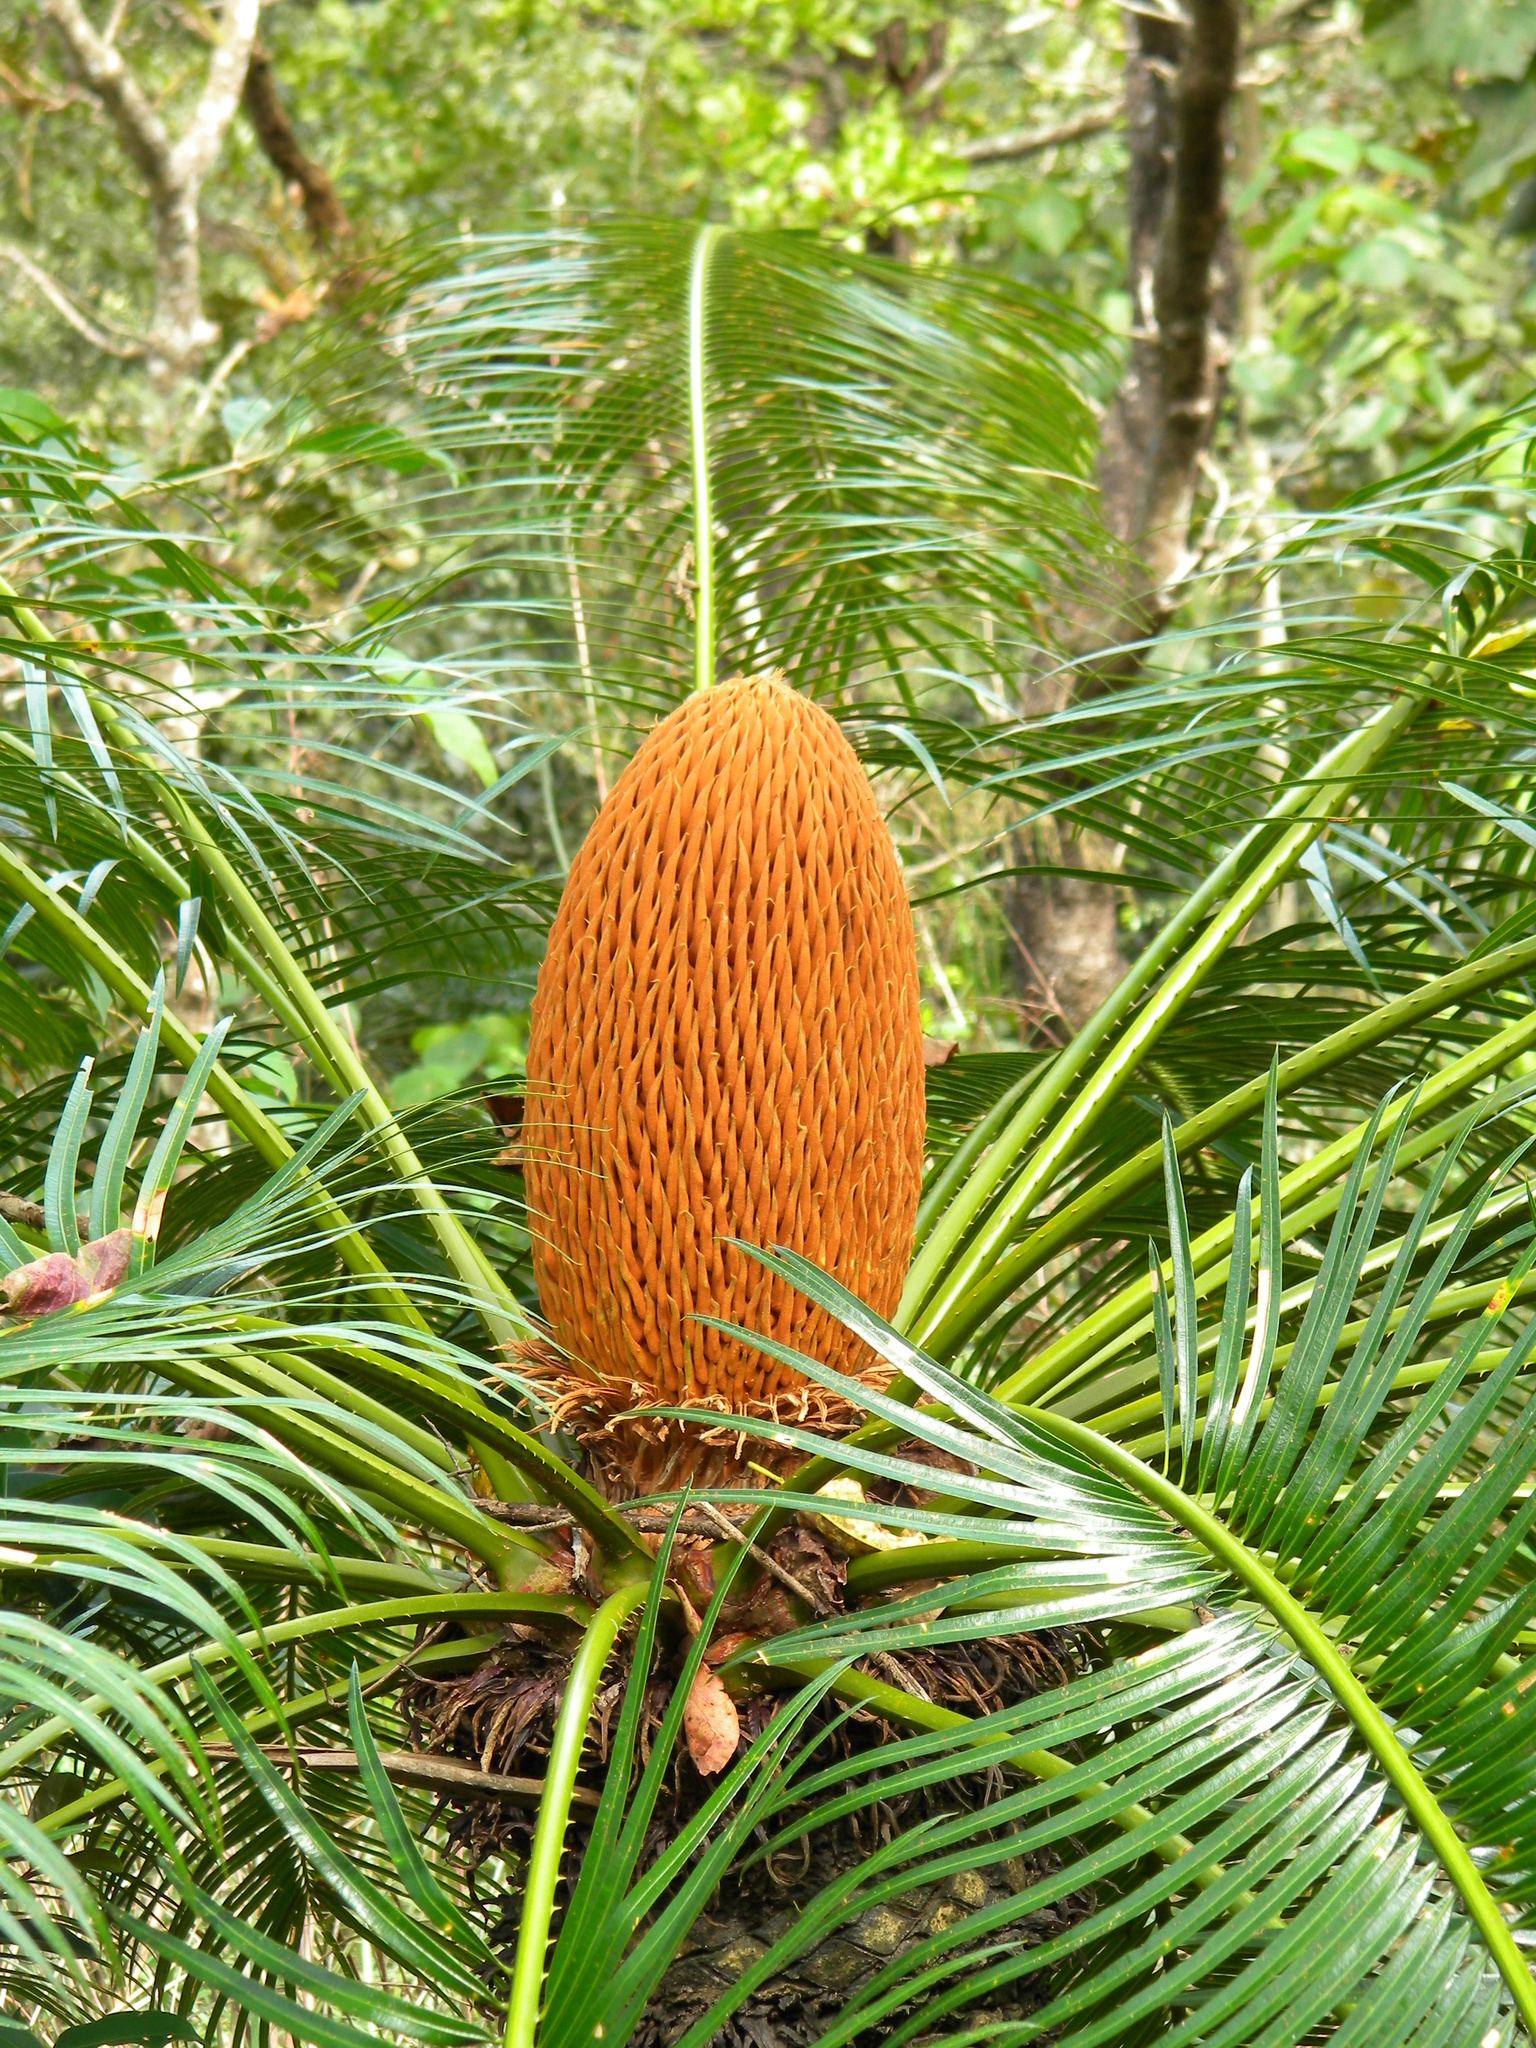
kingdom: Plantae
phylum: Tracheophyta
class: Cycadopsida
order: Cycadales
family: Cycadaceae
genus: Cycas
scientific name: Cycas circinalis
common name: Queen sago
